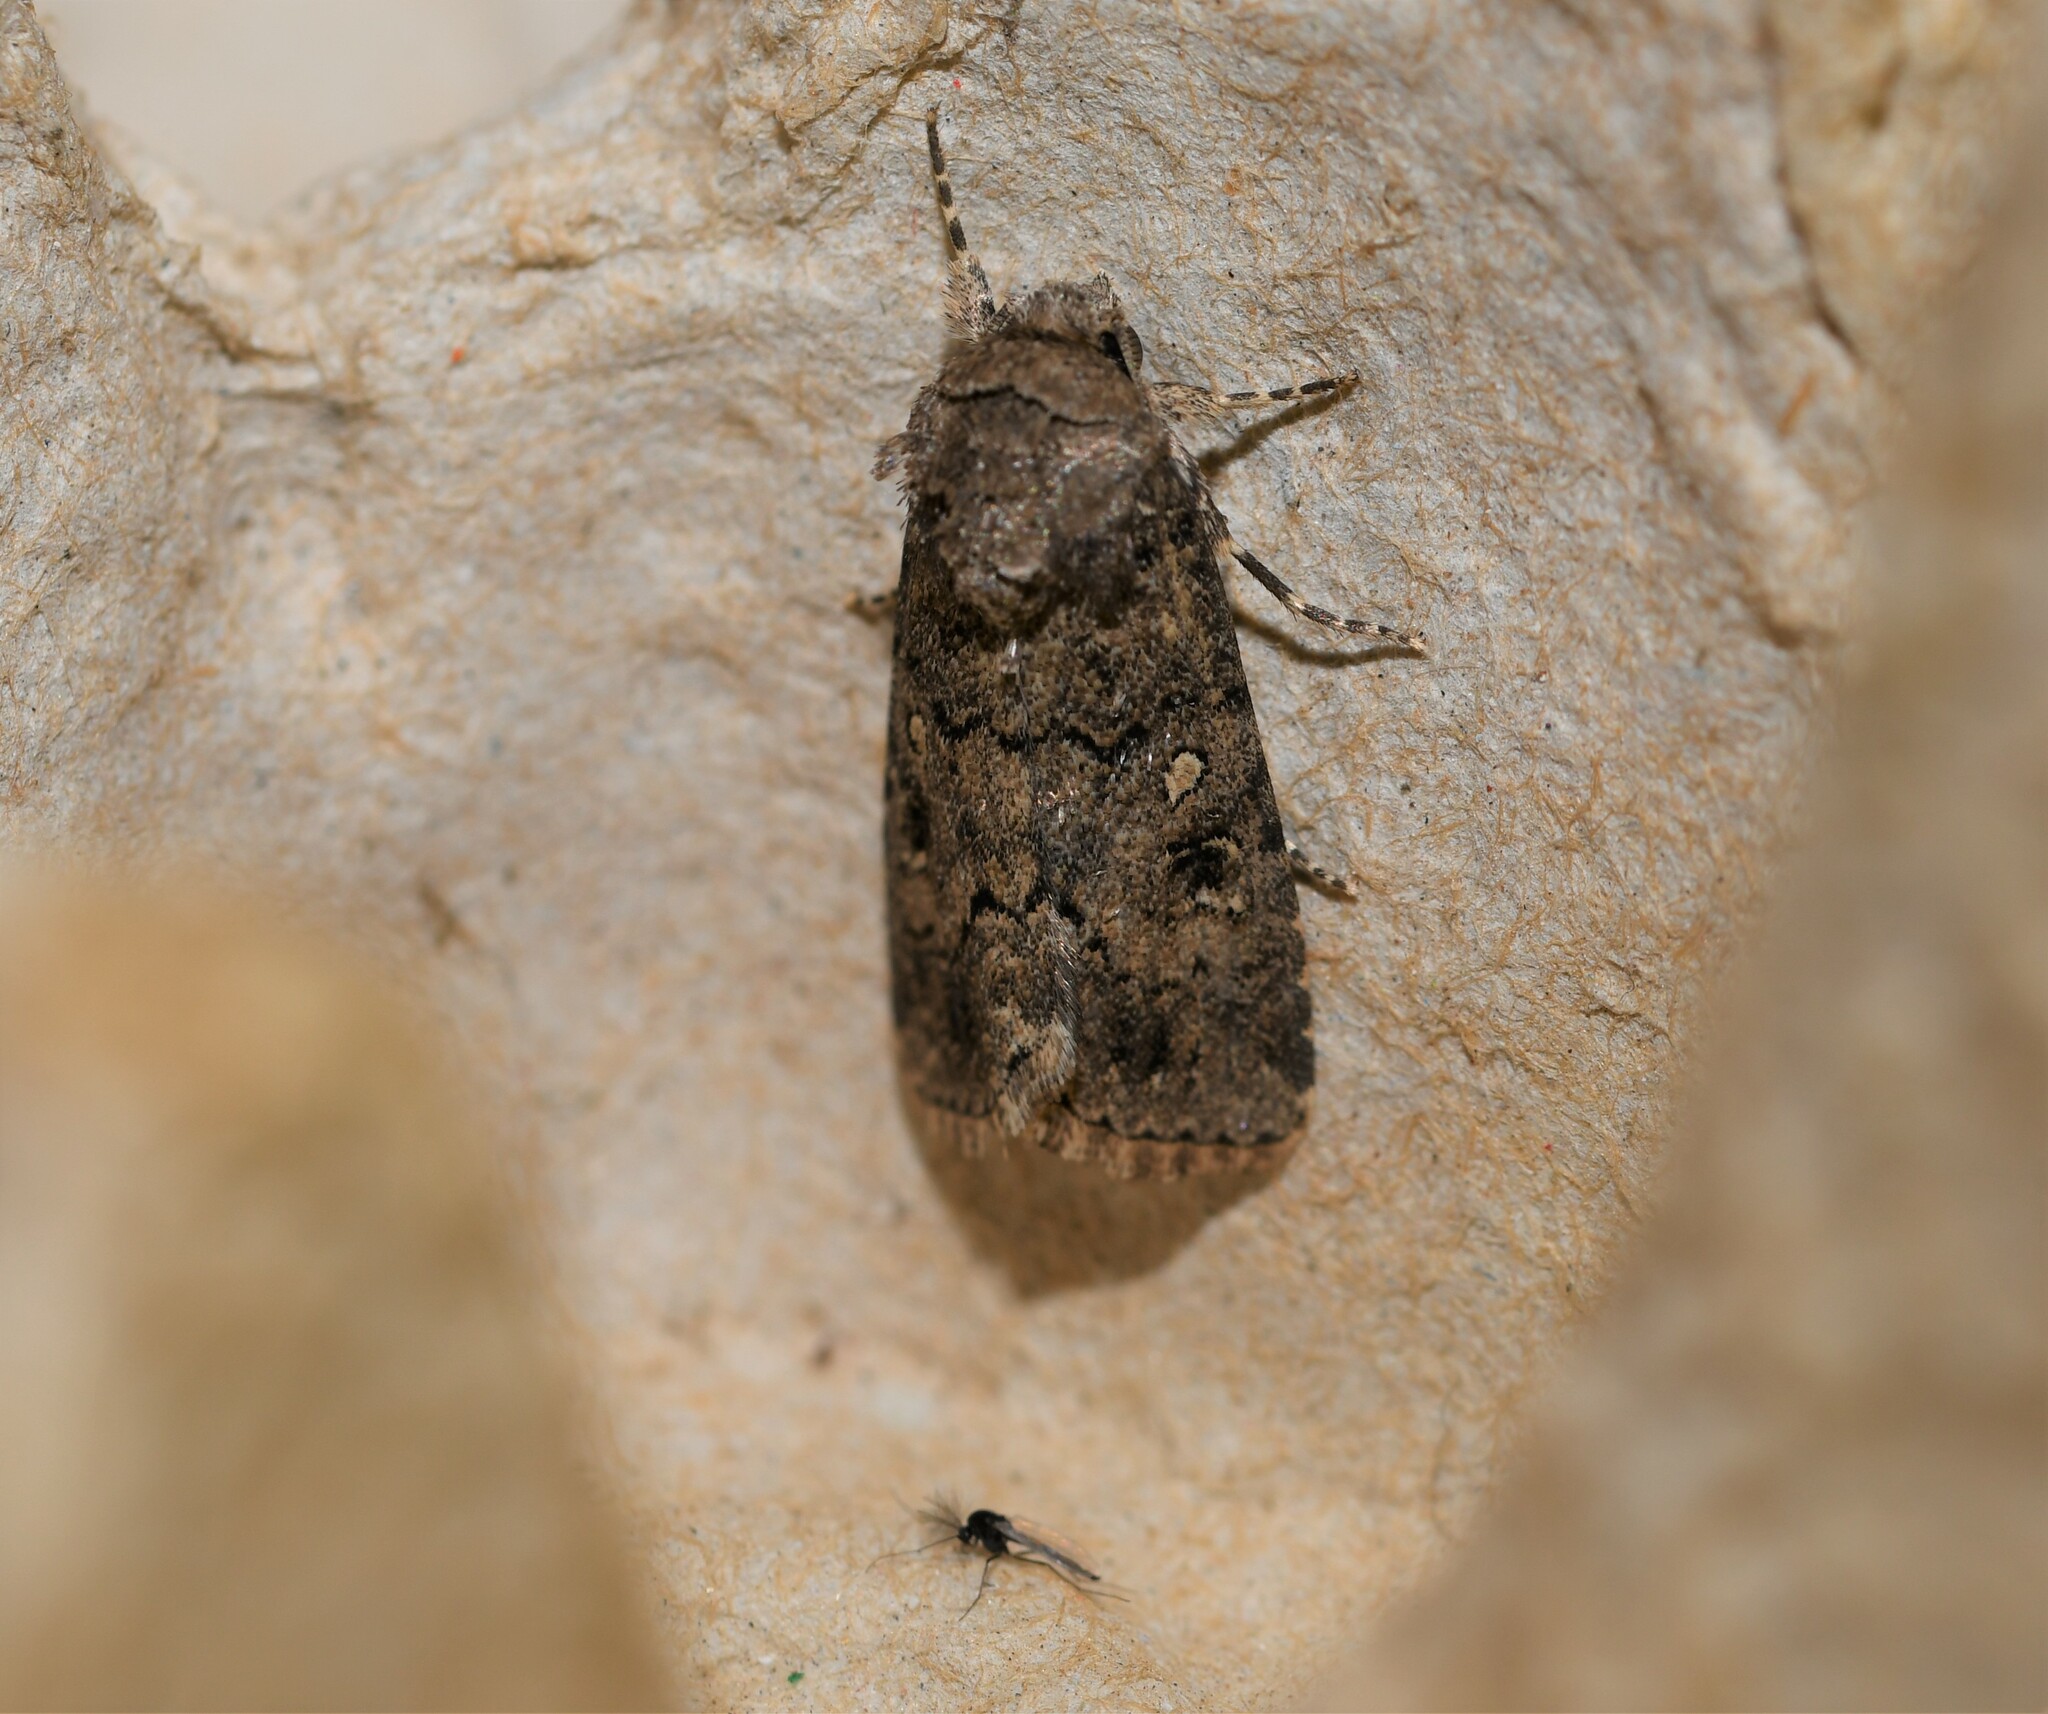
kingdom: Animalia
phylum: Arthropoda
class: Insecta
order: Lepidoptera
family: Noctuidae
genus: Spodoptera
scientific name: Spodoptera cilium
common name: Dark mottled willow
